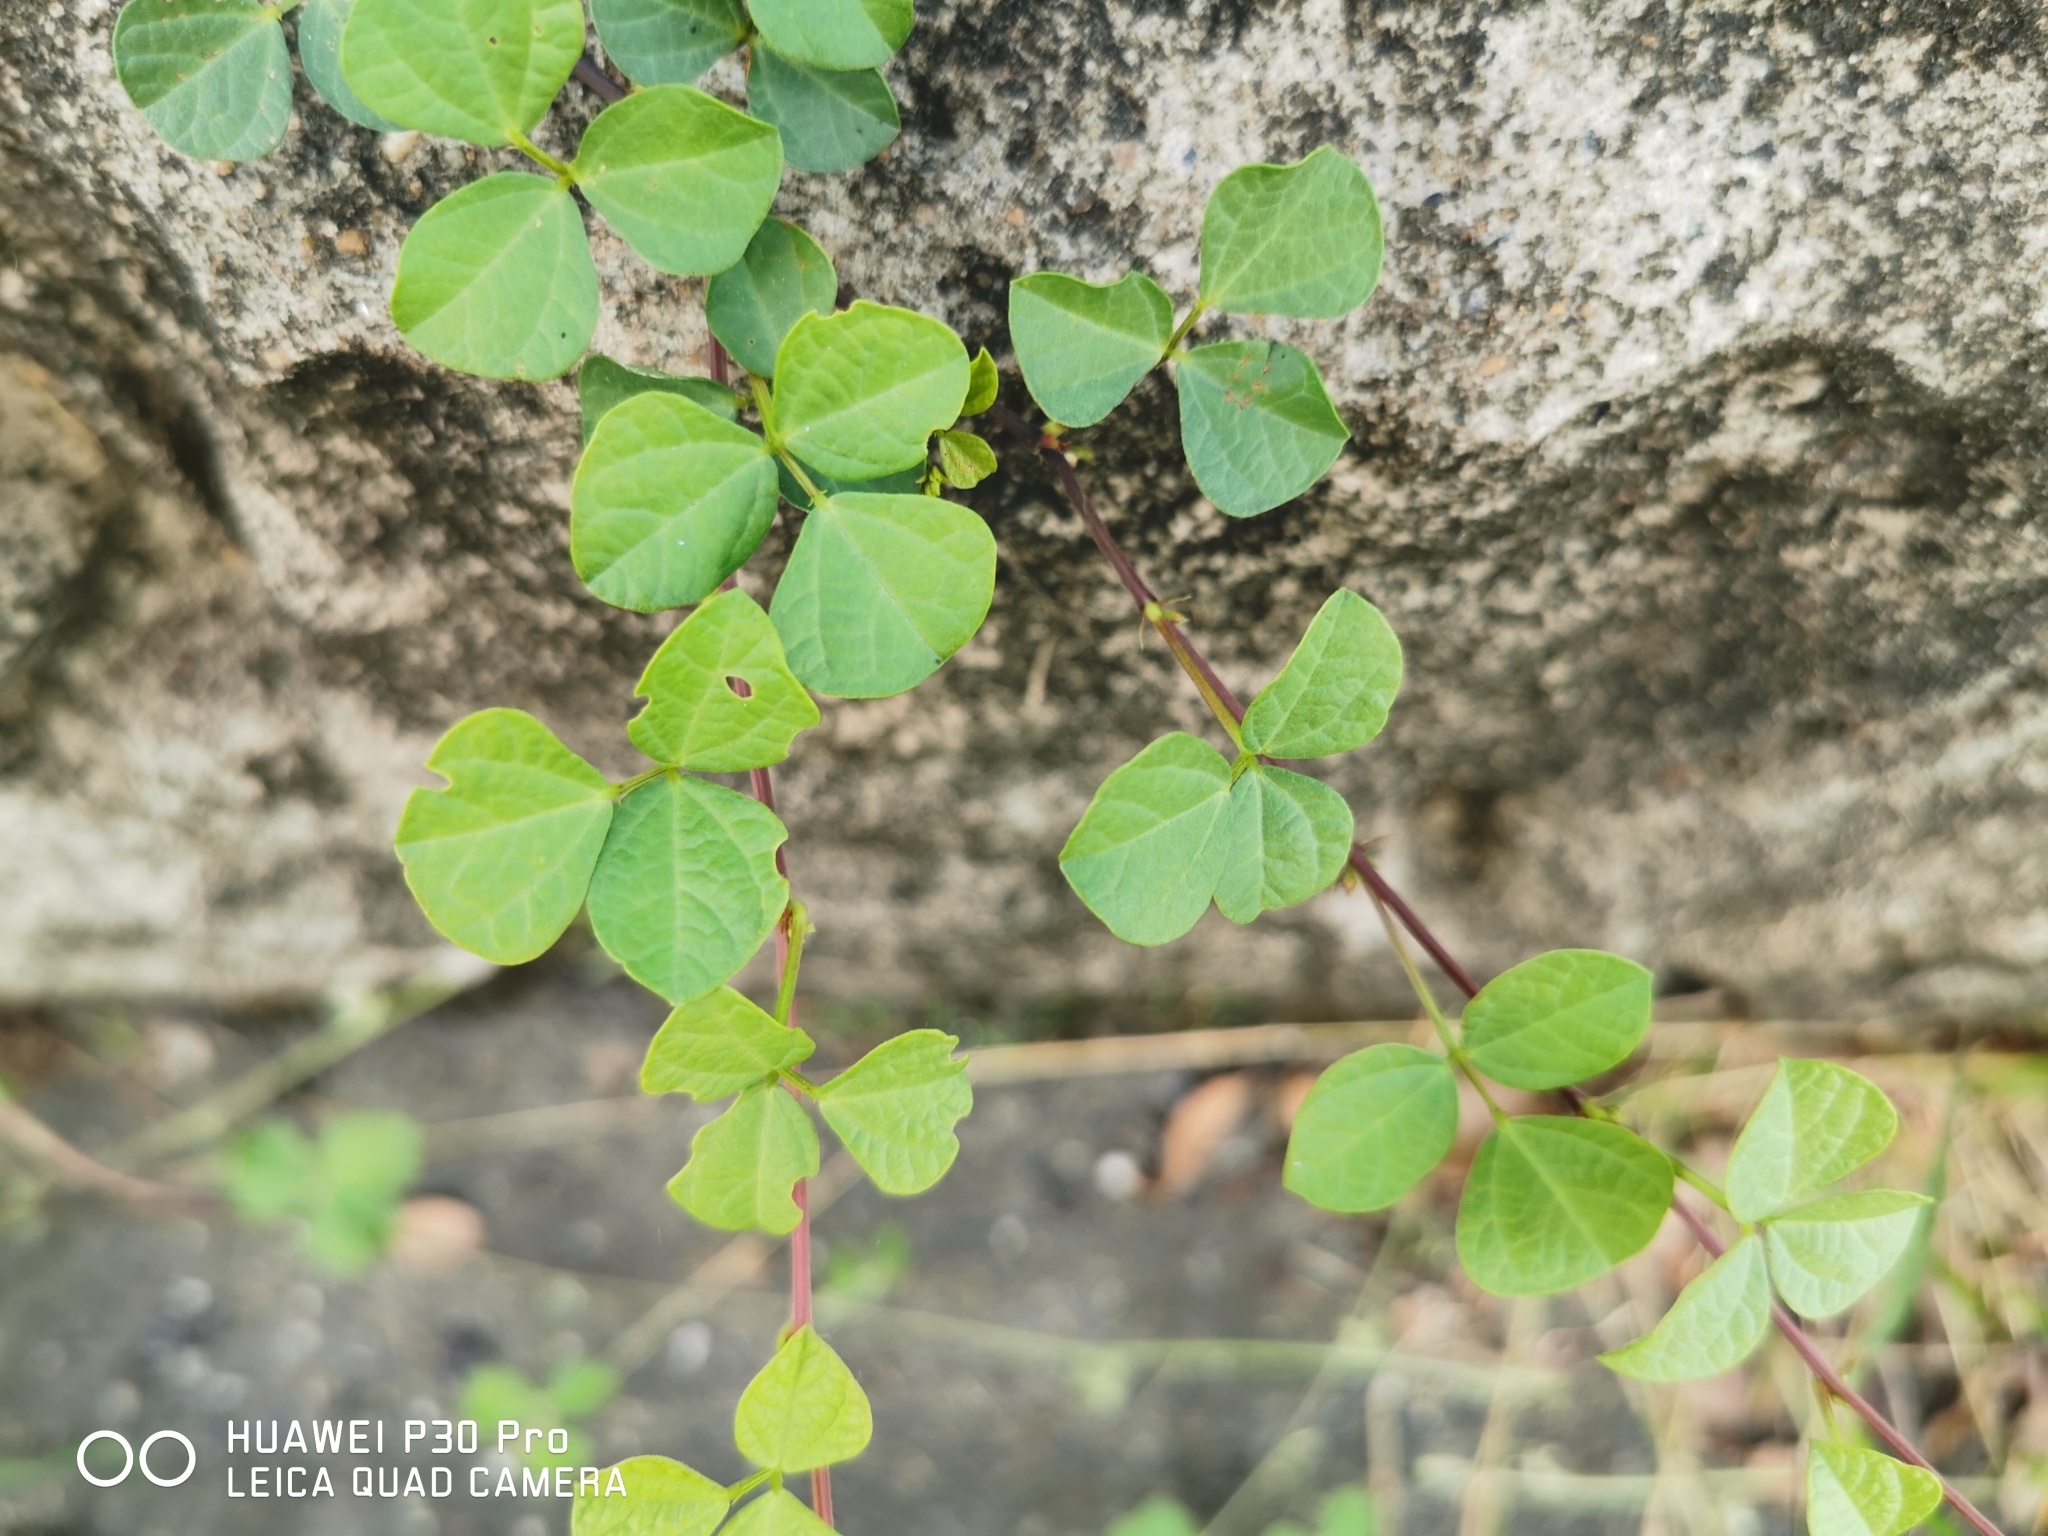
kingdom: Plantae
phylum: Tracheophyta
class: Magnoliopsida
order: Fabales
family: Fabaceae
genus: Rhynchosia
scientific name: Rhynchosia minima
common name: Least snoutbean
